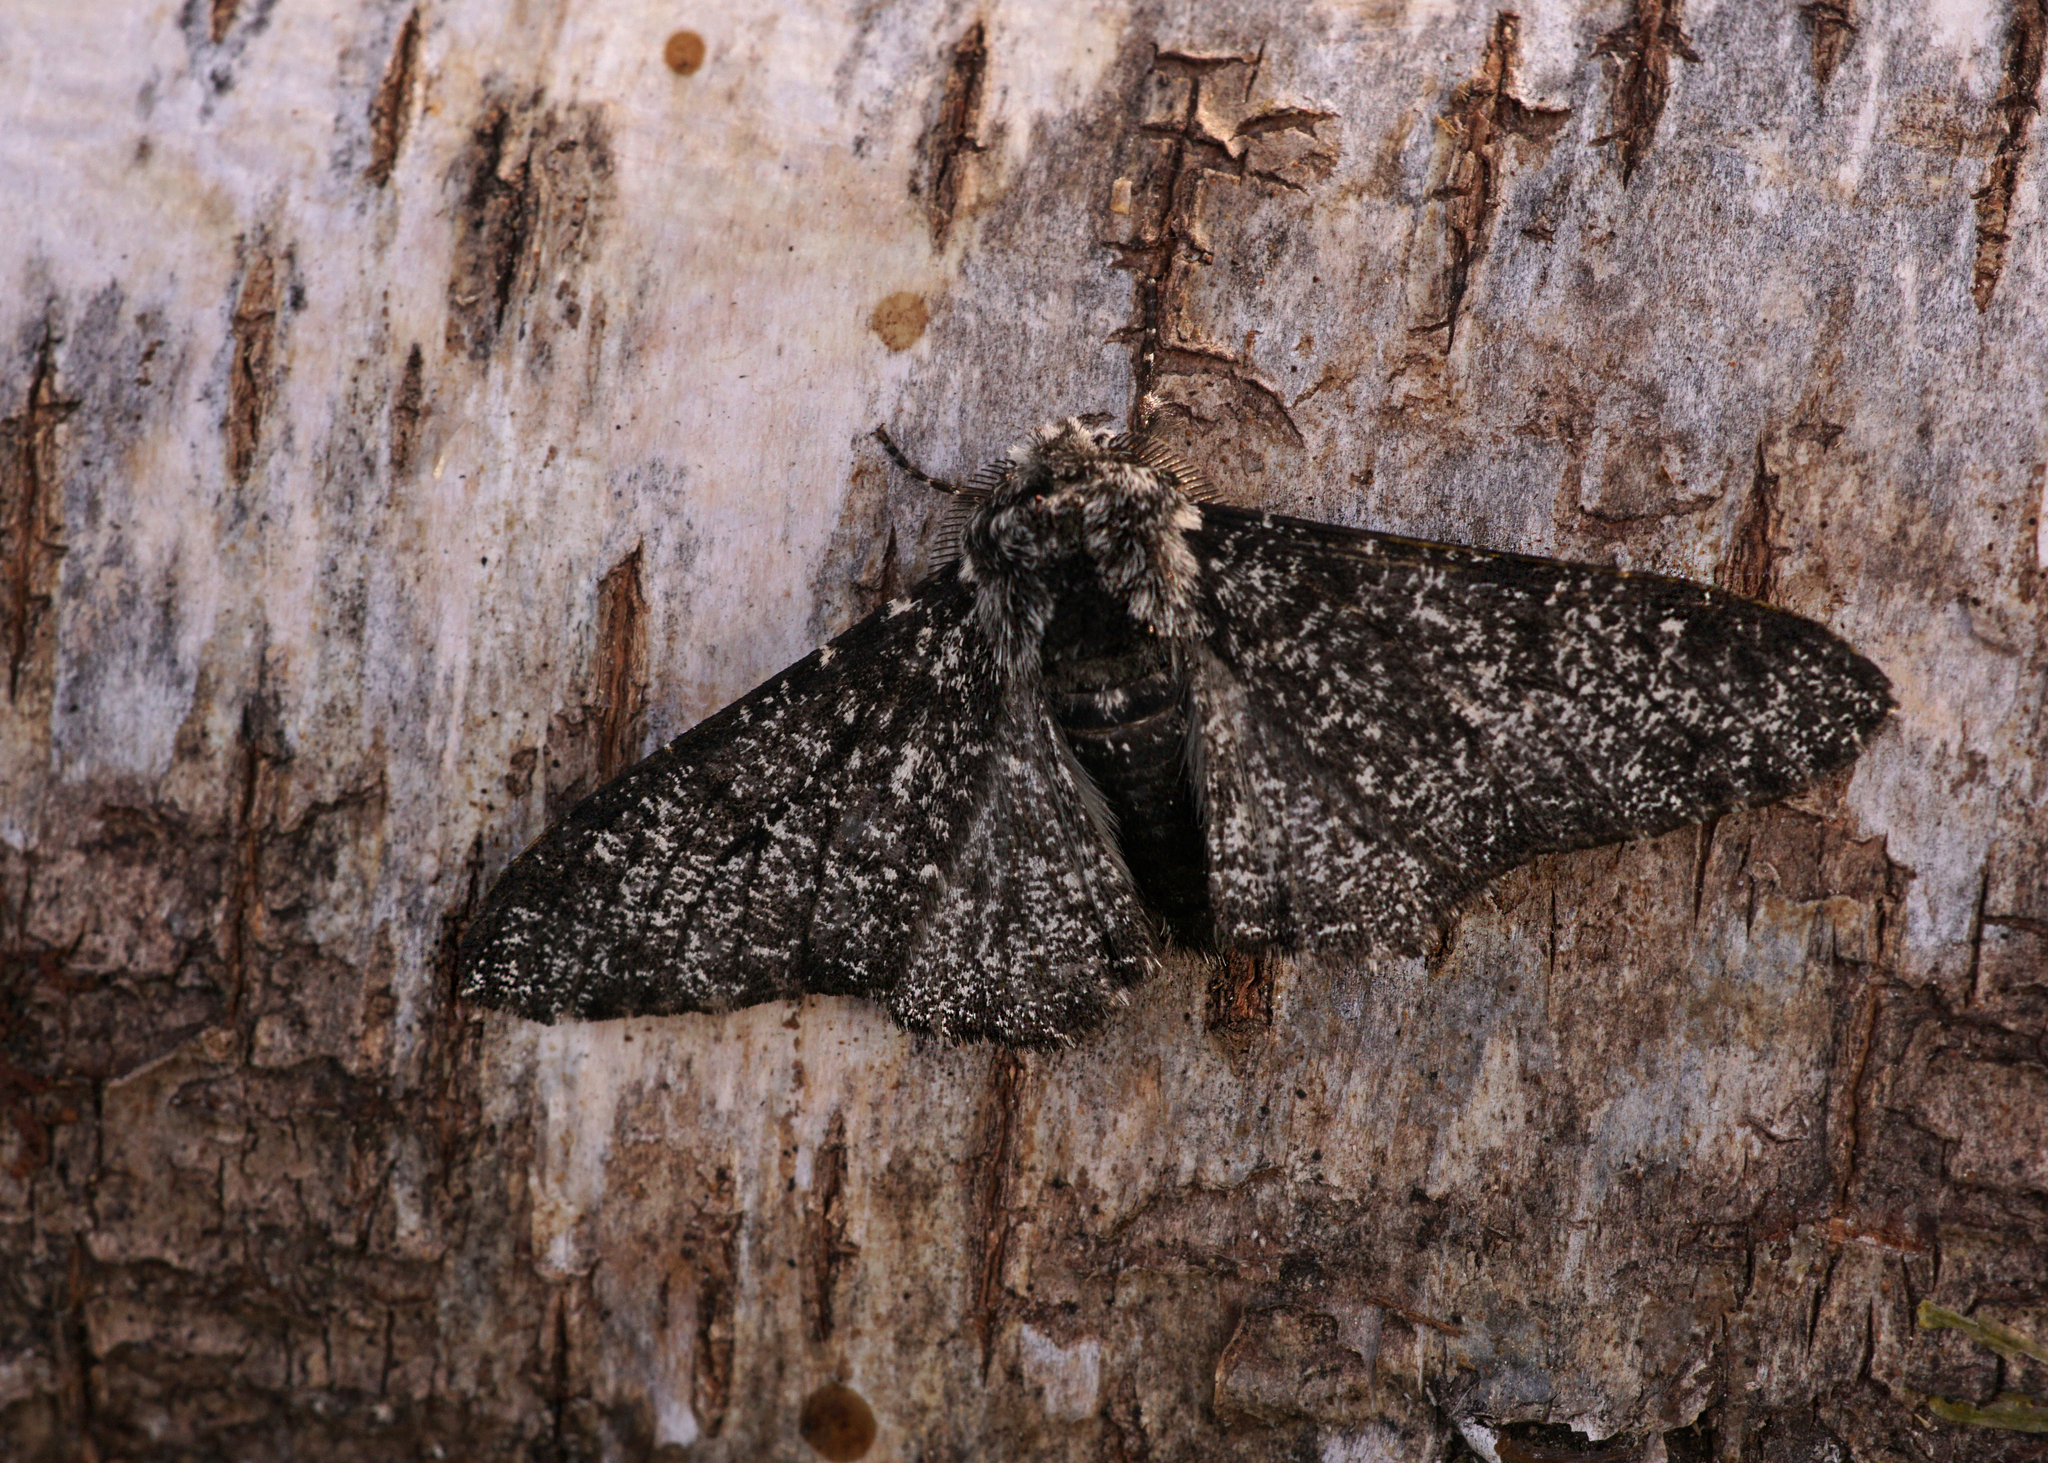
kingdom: Animalia
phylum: Arthropoda
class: Insecta
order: Lepidoptera
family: Geometridae
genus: Biston
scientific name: Biston betularia
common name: Peppered moth
